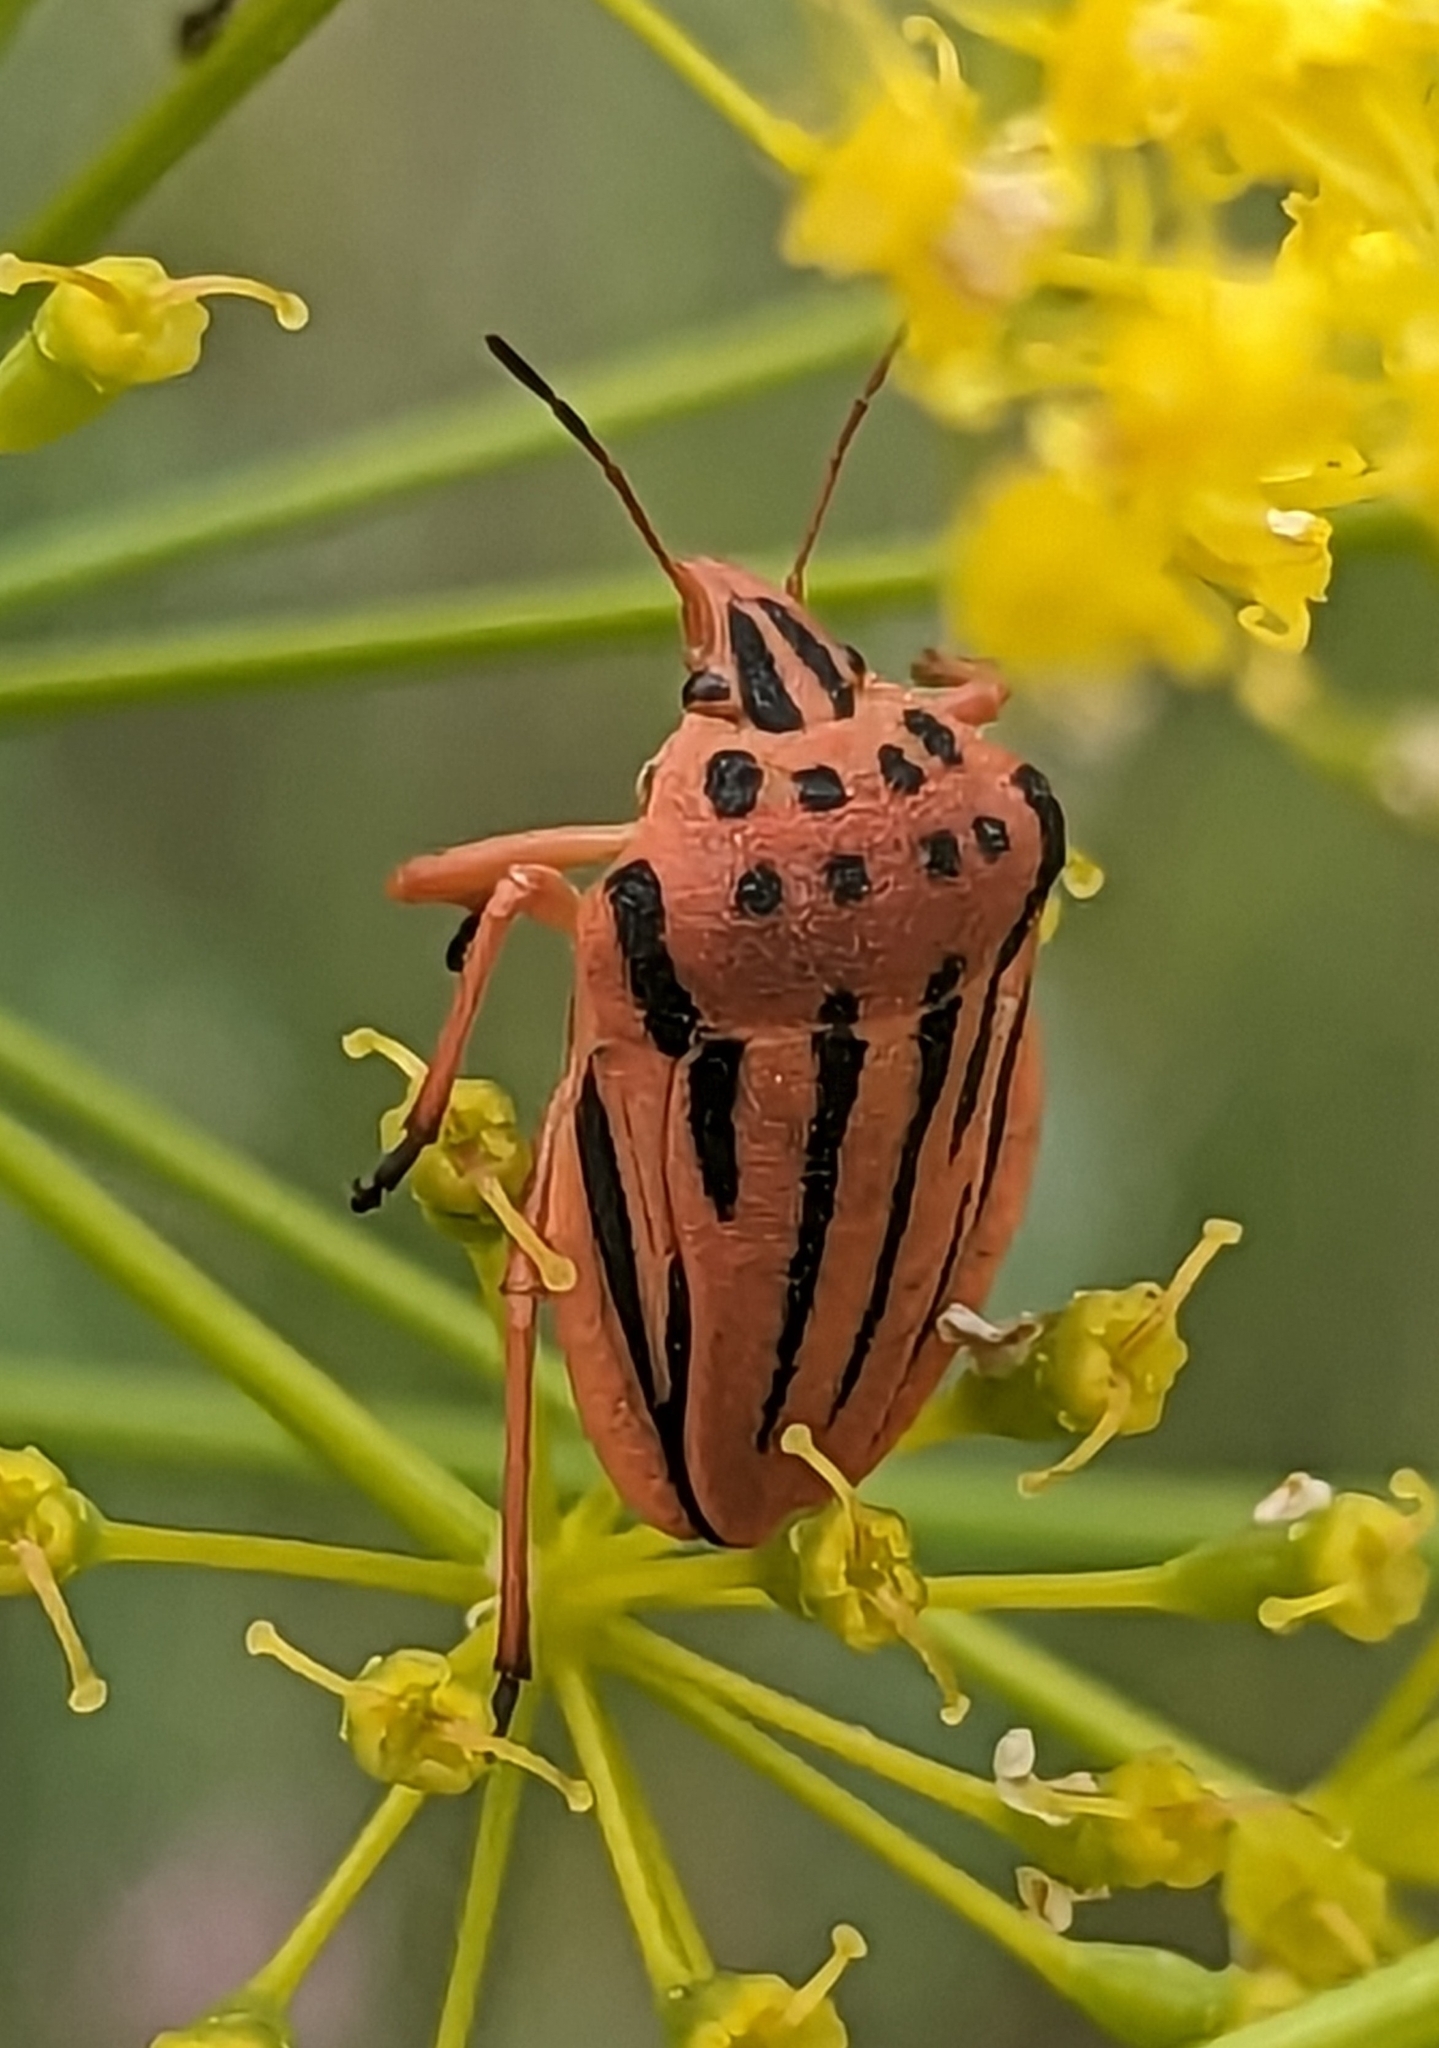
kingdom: Animalia
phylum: Arthropoda
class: Insecta
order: Hemiptera
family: Pentatomidae
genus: Graphosoma
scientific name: Graphosoma semipunctatum
